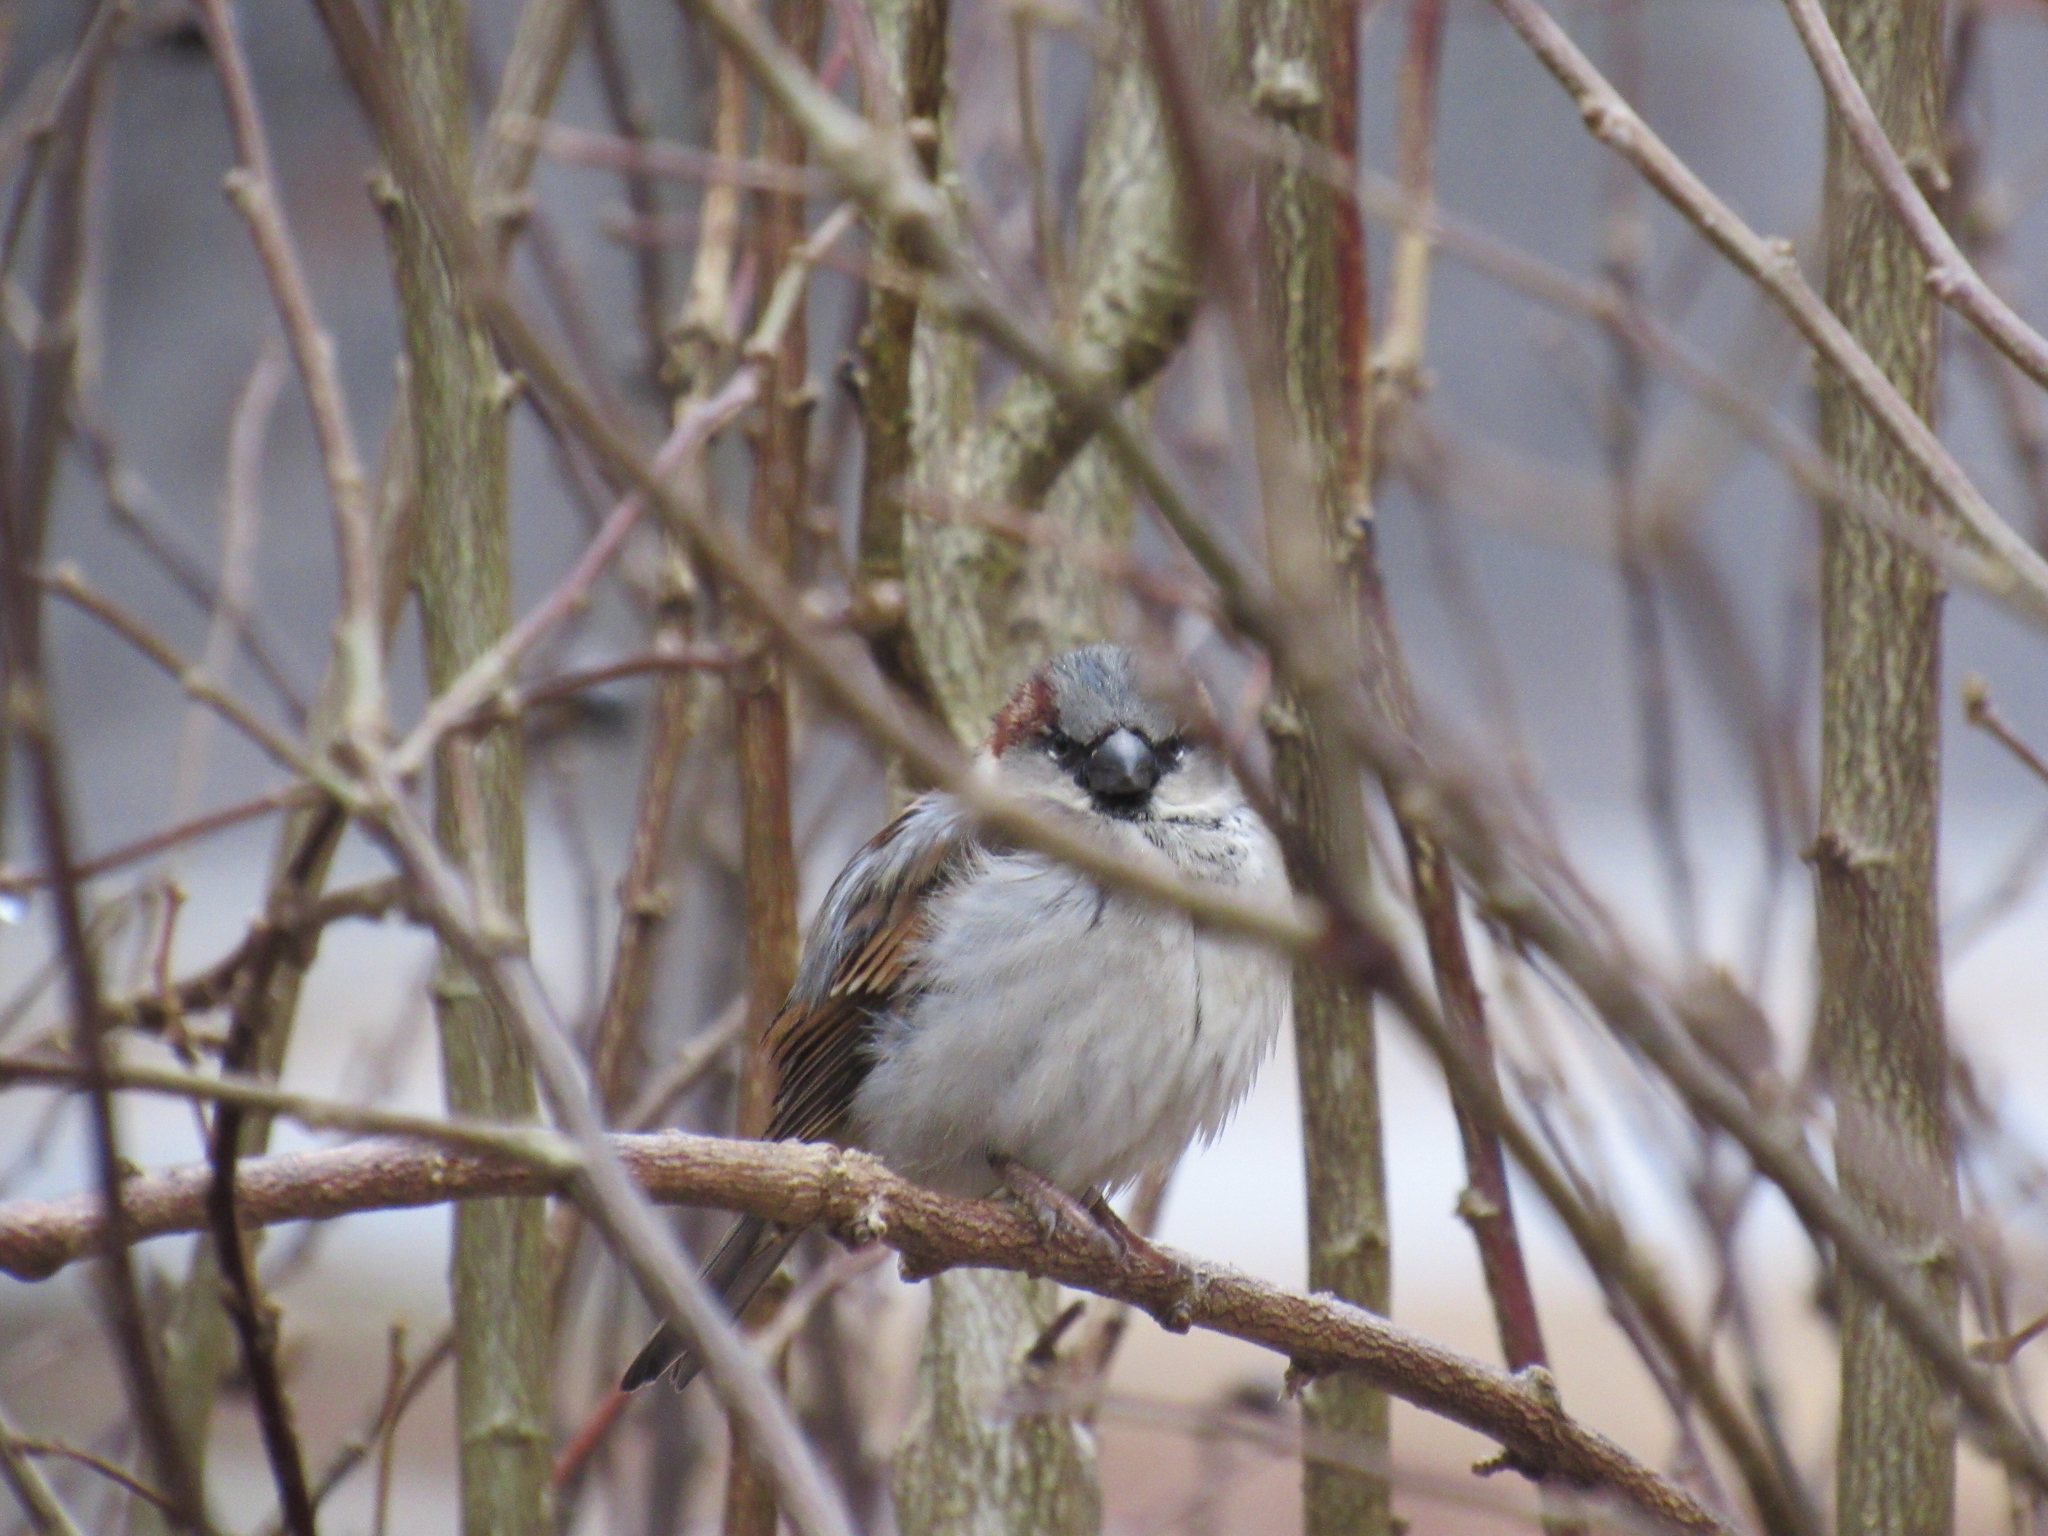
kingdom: Animalia
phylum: Chordata
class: Aves
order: Passeriformes
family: Passeridae
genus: Passer
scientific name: Passer domesticus
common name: House sparrow
